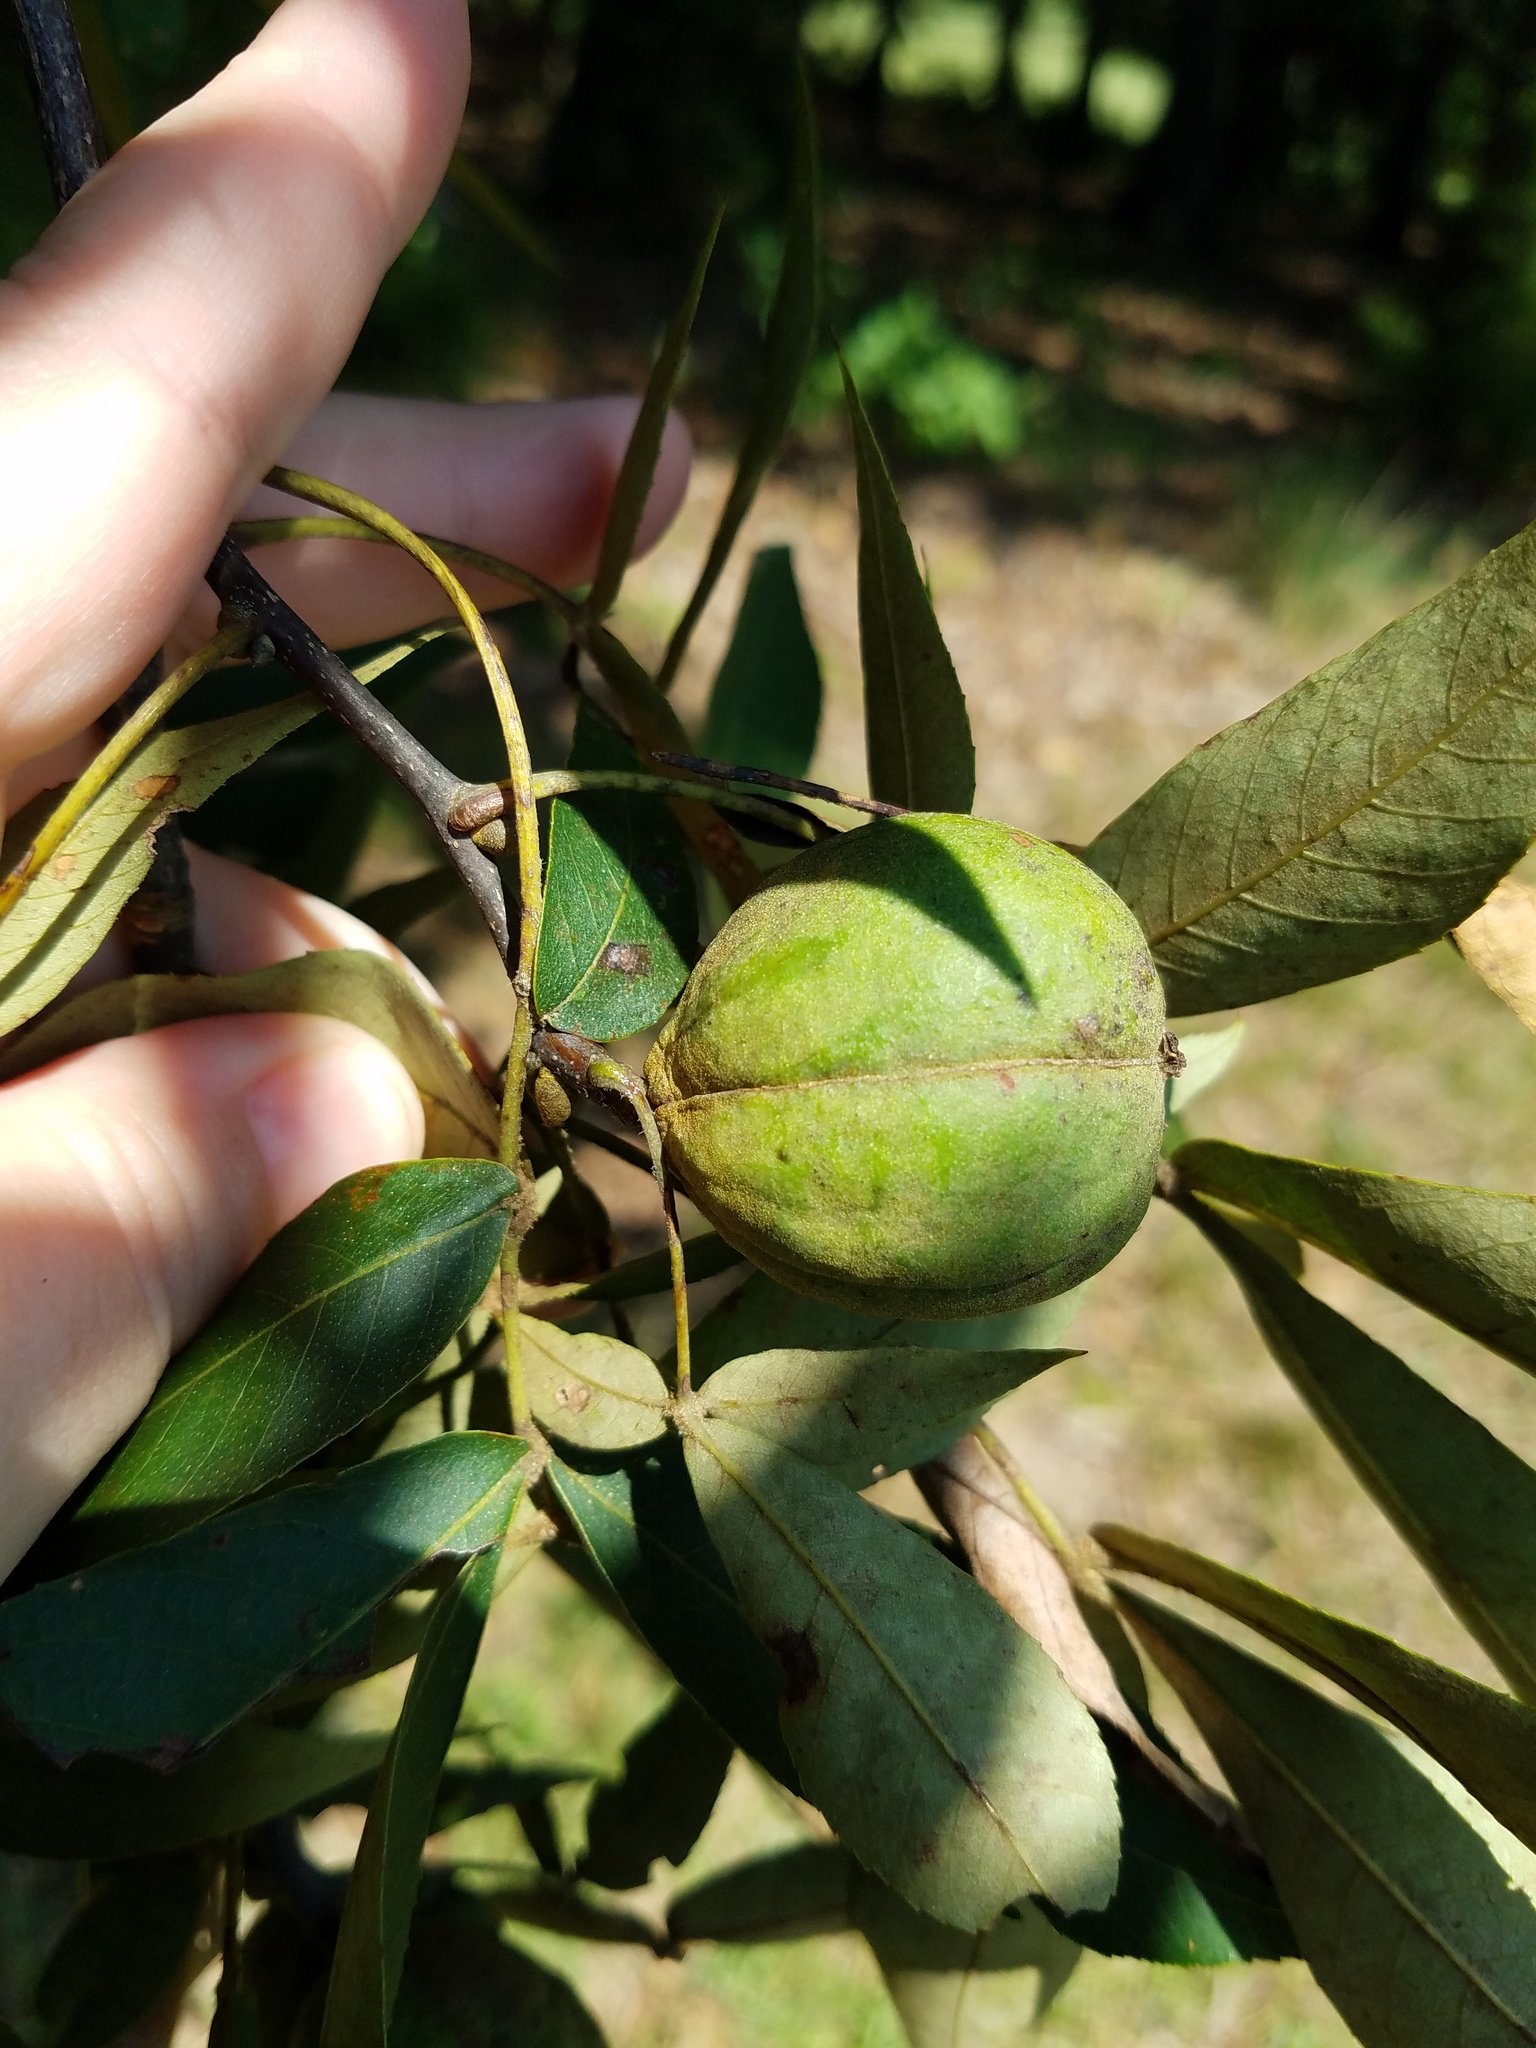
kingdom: Plantae
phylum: Tracheophyta
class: Magnoliopsida
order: Fagales
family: Juglandaceae
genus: Carya
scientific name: Carya pallida
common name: Sand hickory
